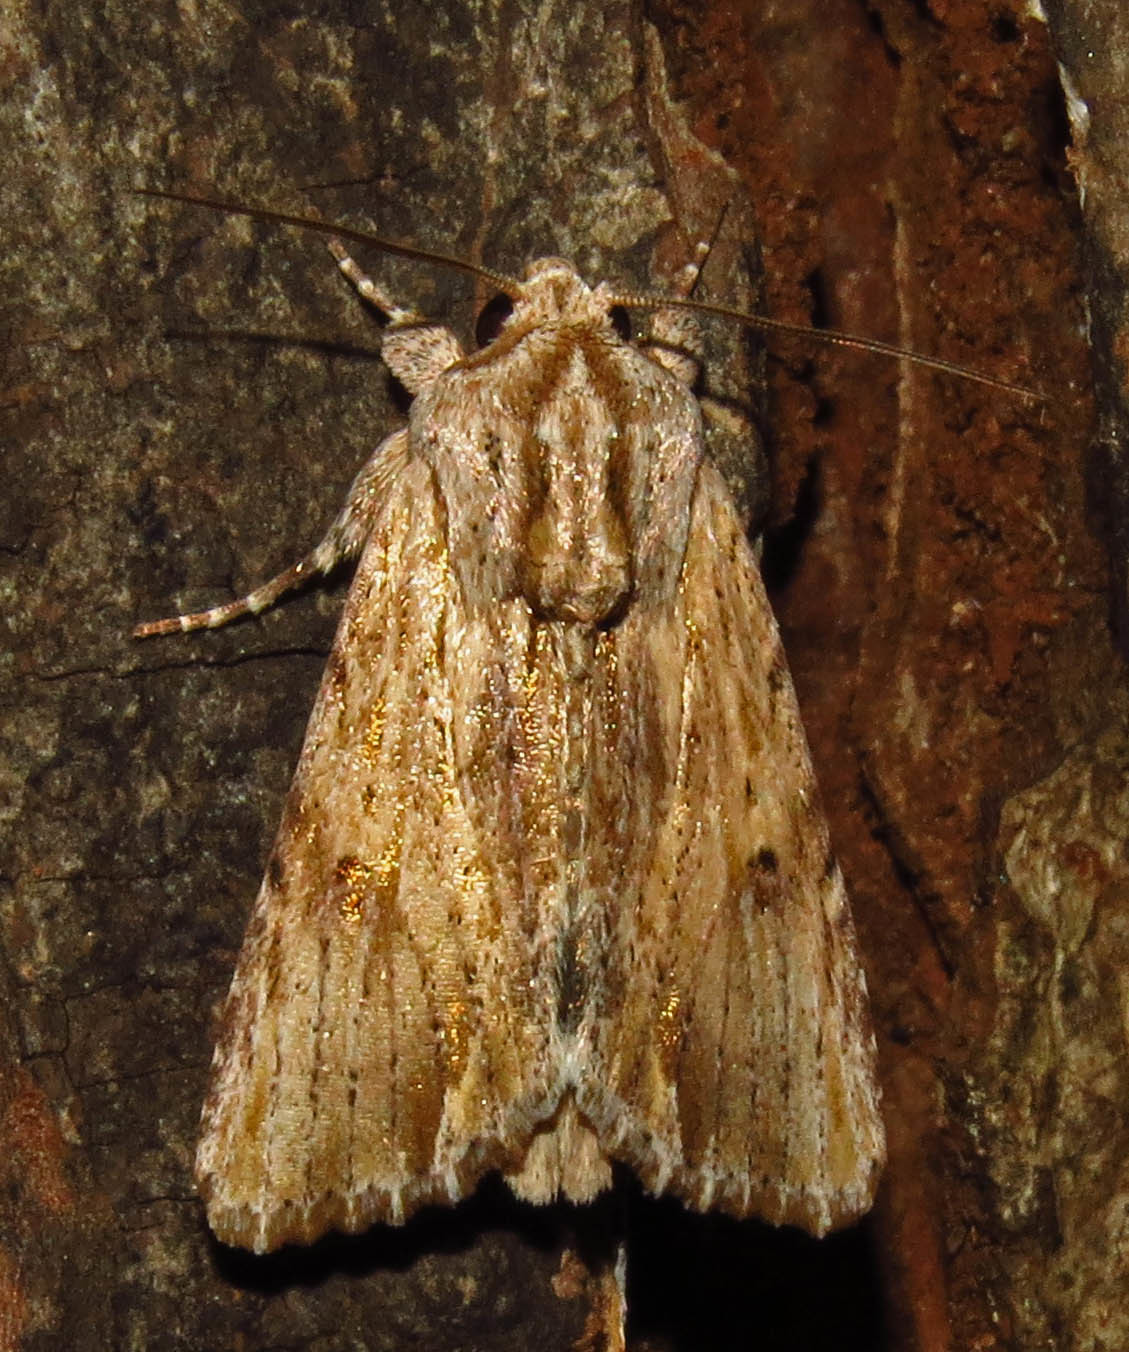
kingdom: Animalia
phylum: Arthropoda
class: Insecta
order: Lepidoptera
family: Noctuidae
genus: Spodoptera
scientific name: Spodoptera eridania
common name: Southern army worm
